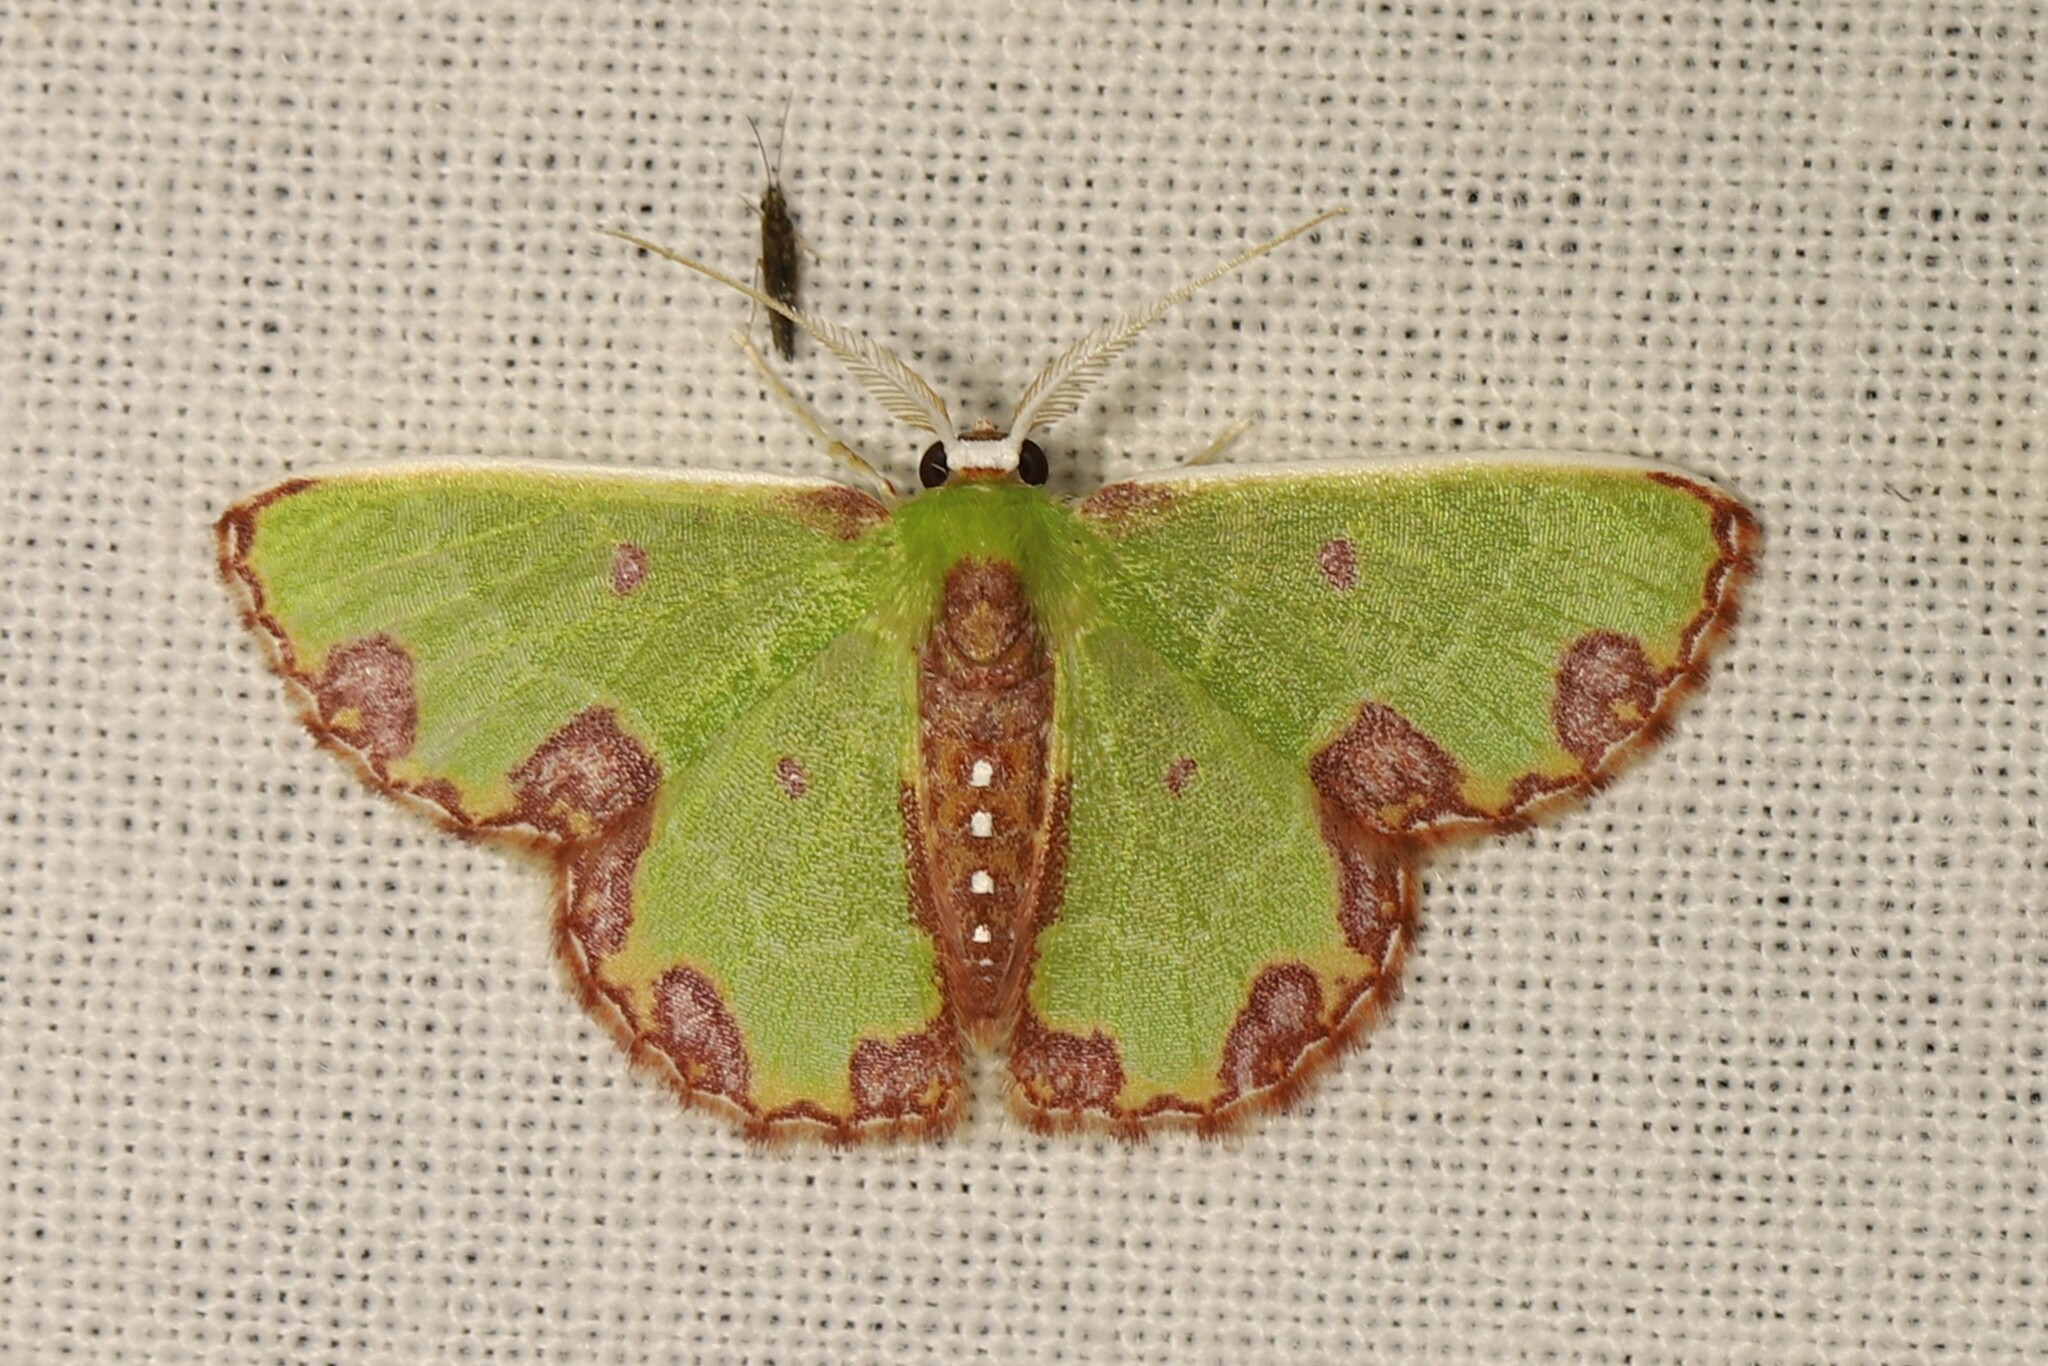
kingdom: Animalia
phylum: Arthropoda
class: Insecta
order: Lepidoptera
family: Geometridae
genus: Synchlora
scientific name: Synchlora gerularia
